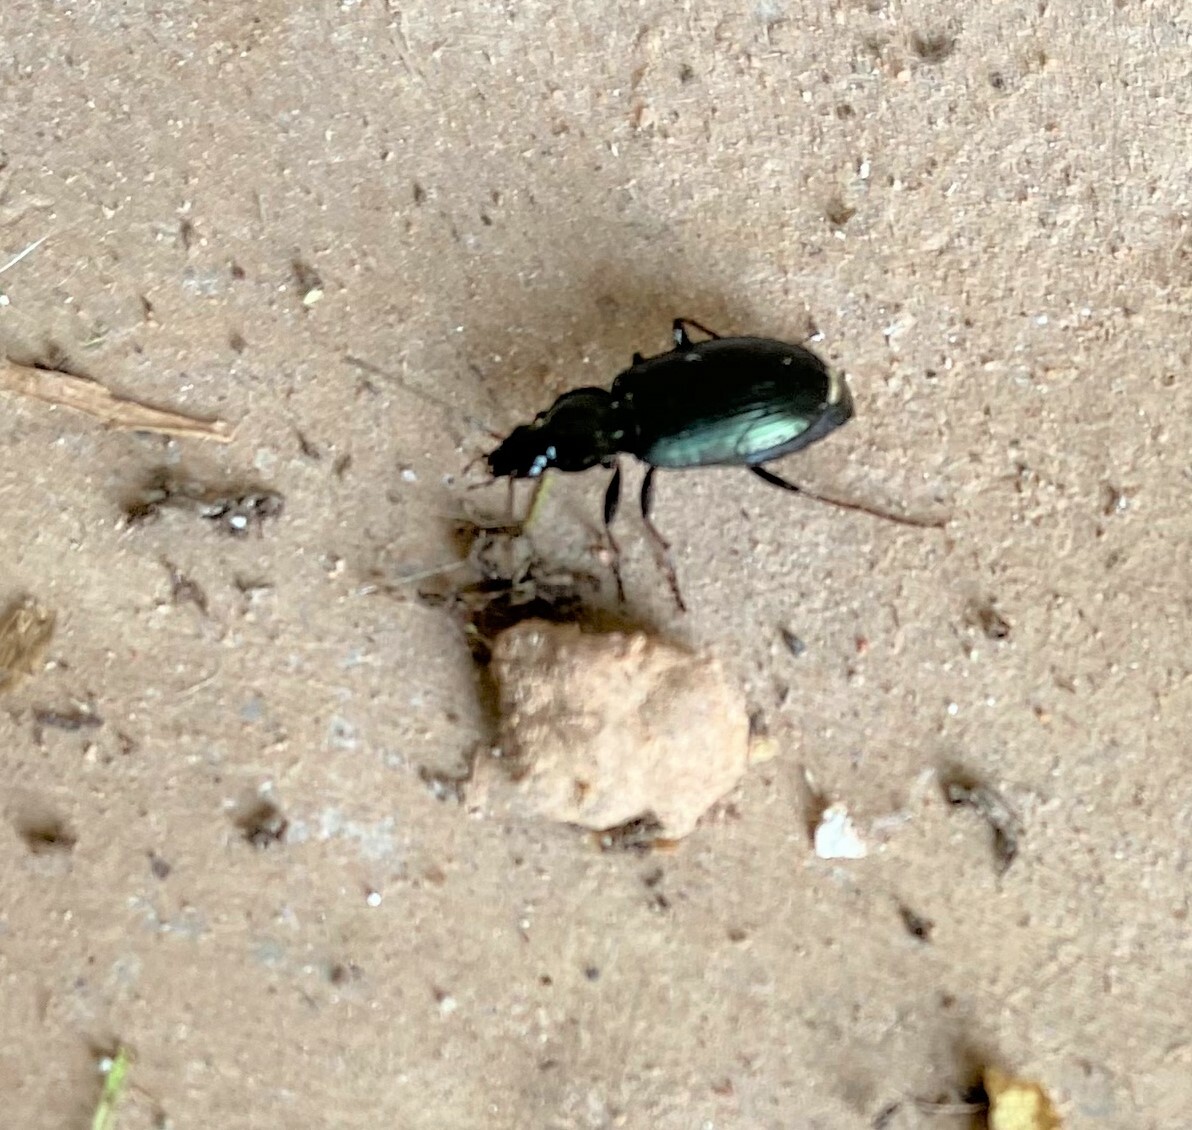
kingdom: Animalia
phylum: Arthropoda
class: Insecta
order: Coleoptera
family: Carabidae
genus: Agonum
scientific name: Agonum
